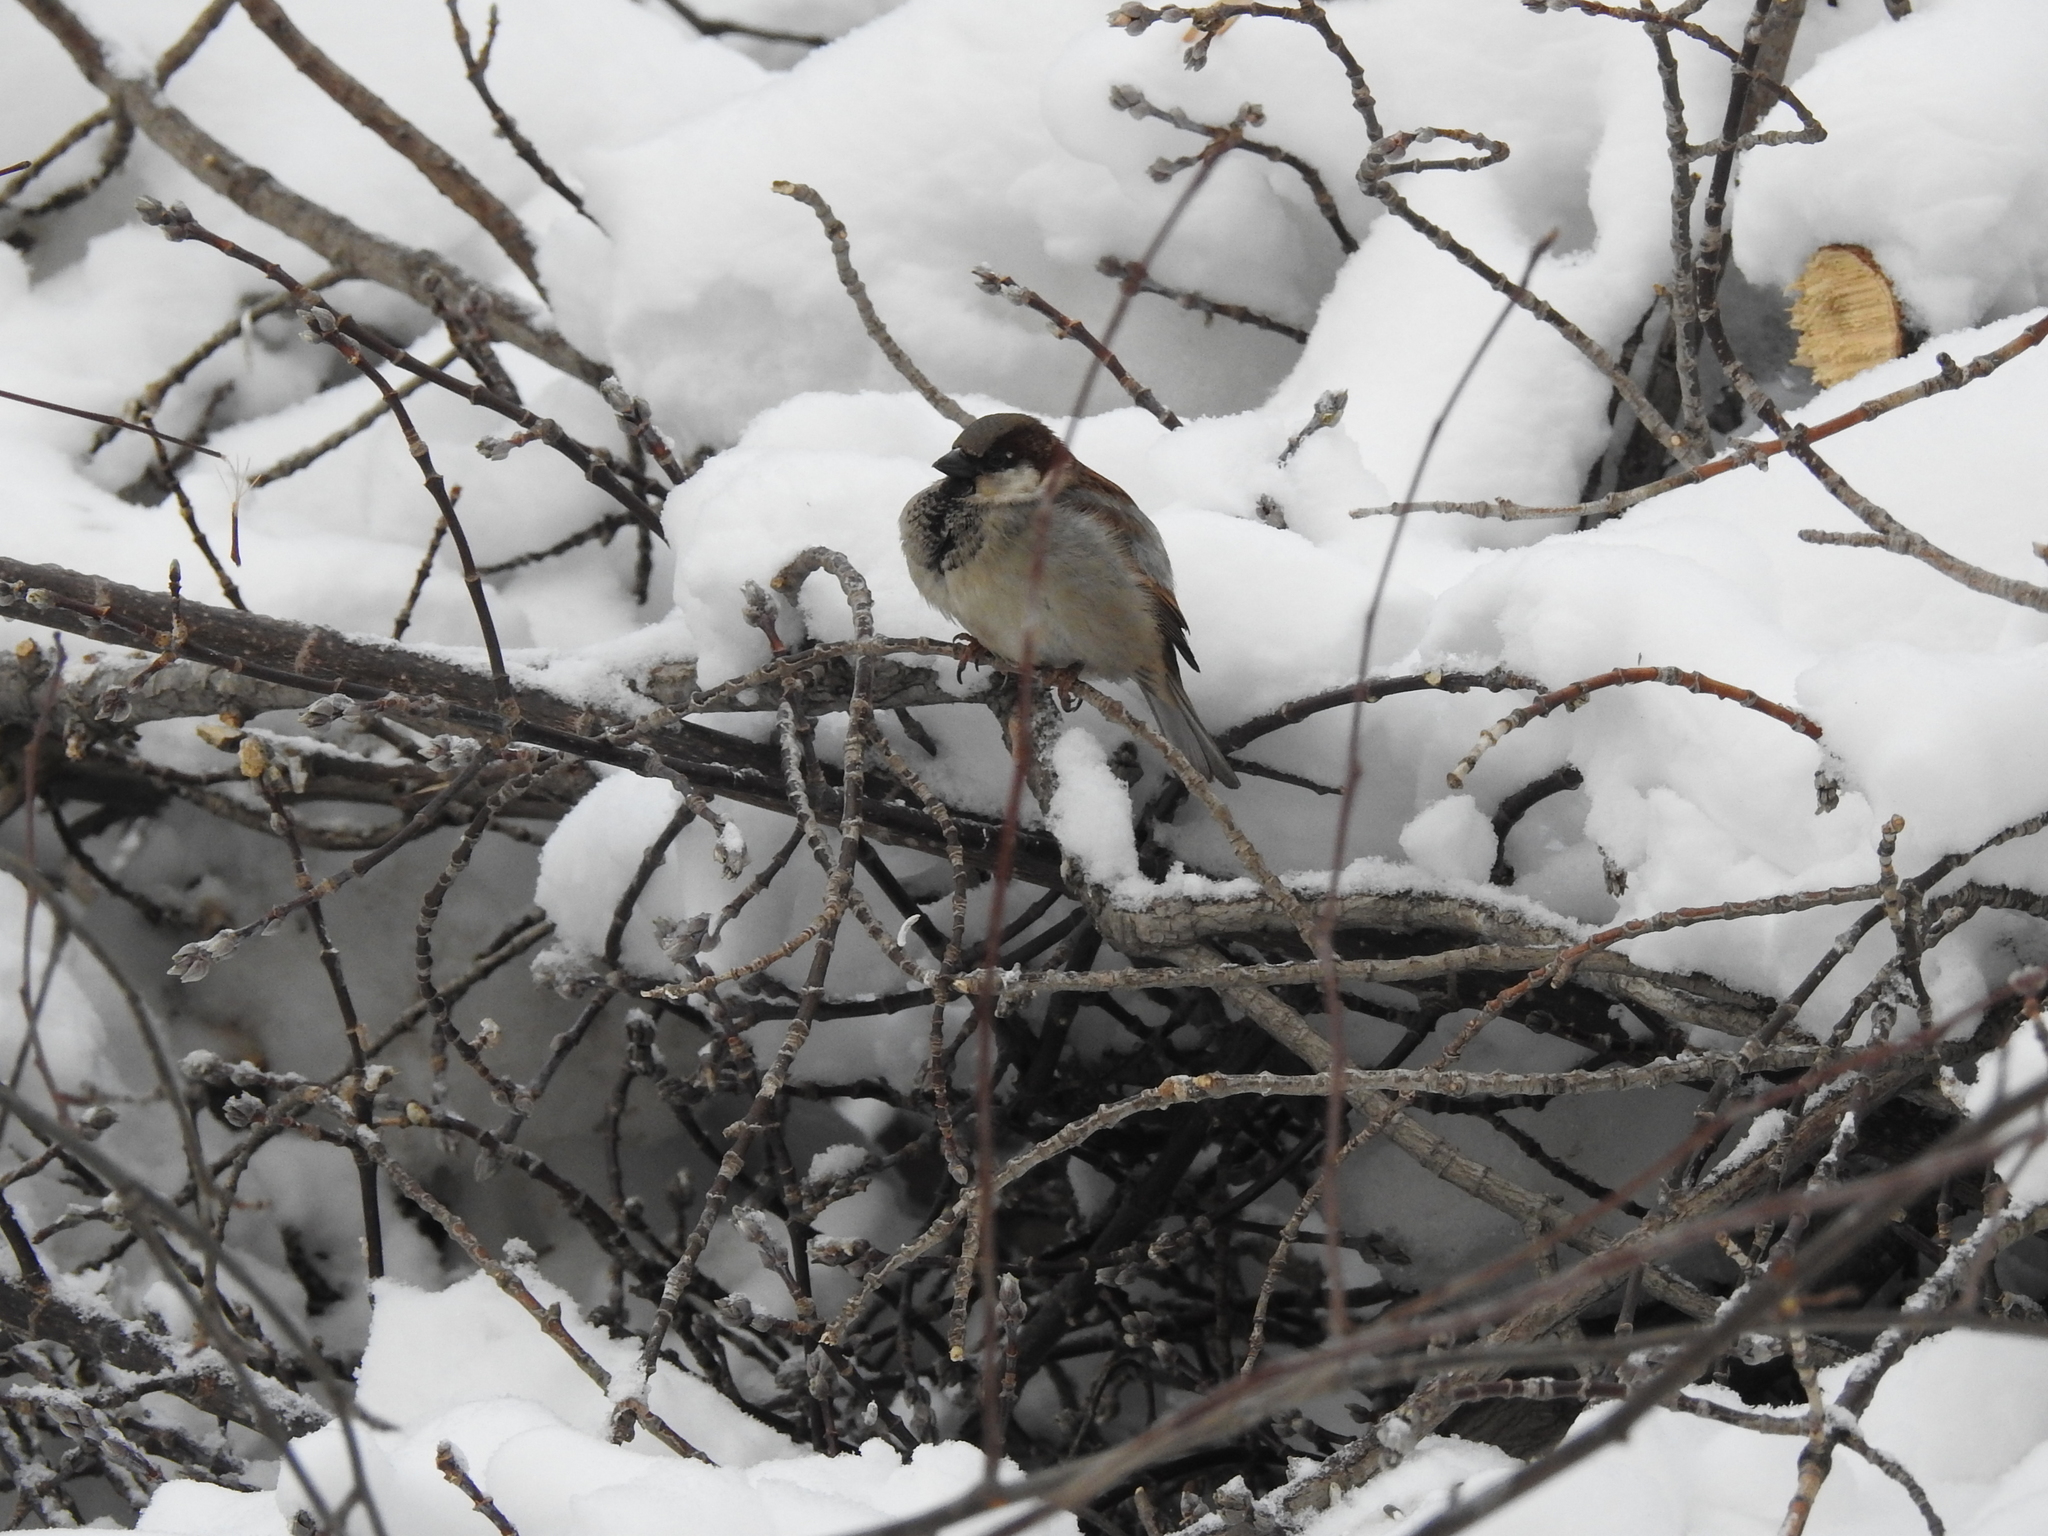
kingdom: Animalia
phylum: Chordata
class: Aves
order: Passeriformes
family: Passeridae
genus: Passer
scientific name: Passer domesticus
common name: House sparrow
